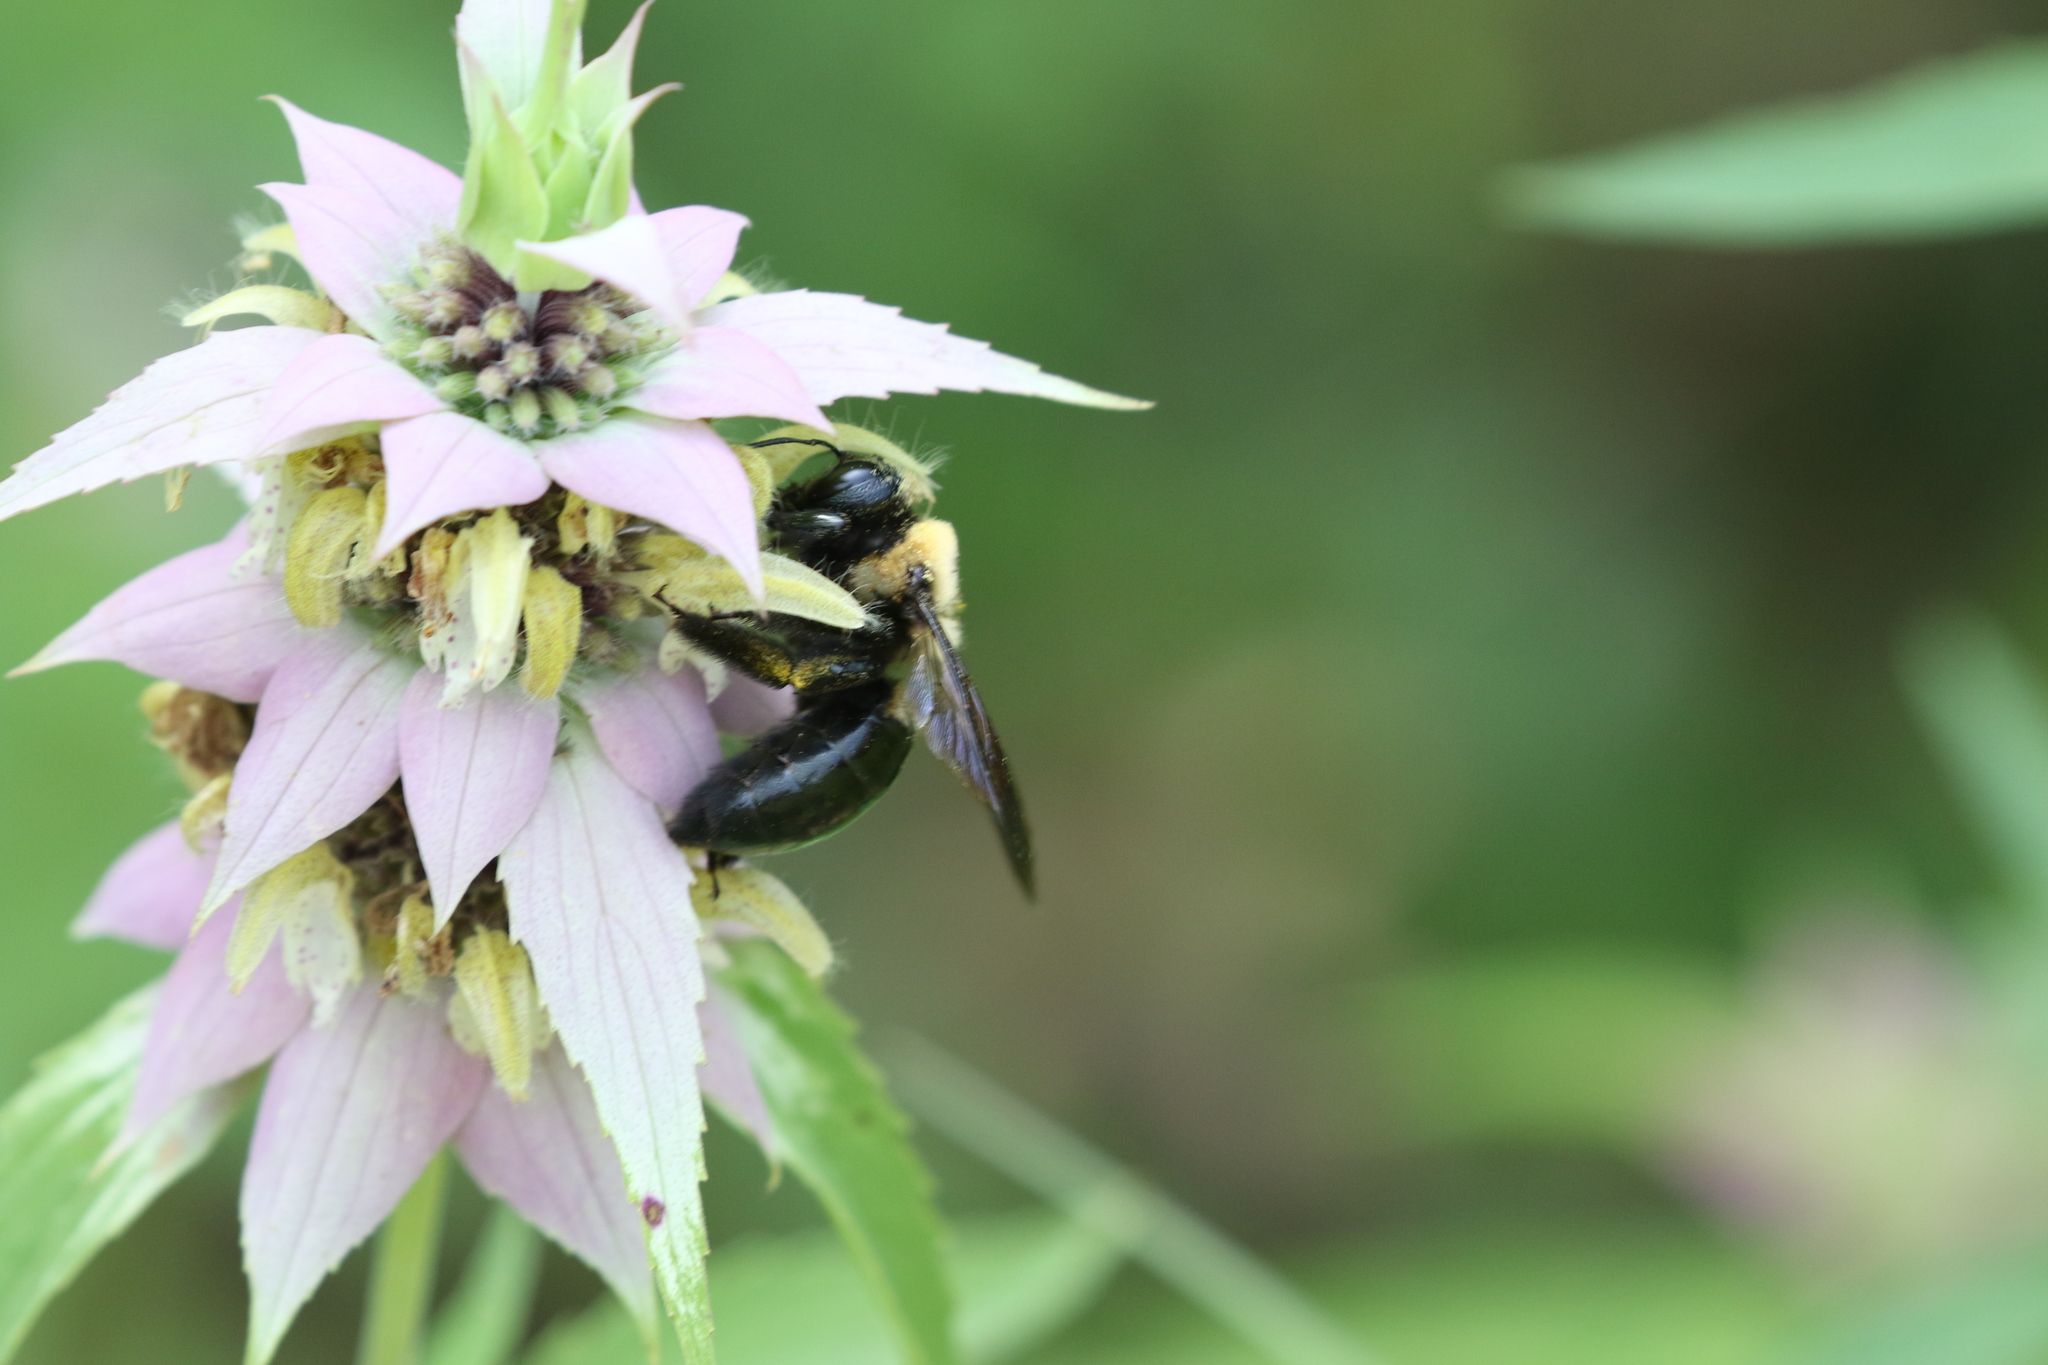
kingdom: Animalia
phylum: Arthropoda
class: Insecta
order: Hymenoptera
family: Apidae
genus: Xylocopa
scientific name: Xylocopa virginica
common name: Carpenter bee
